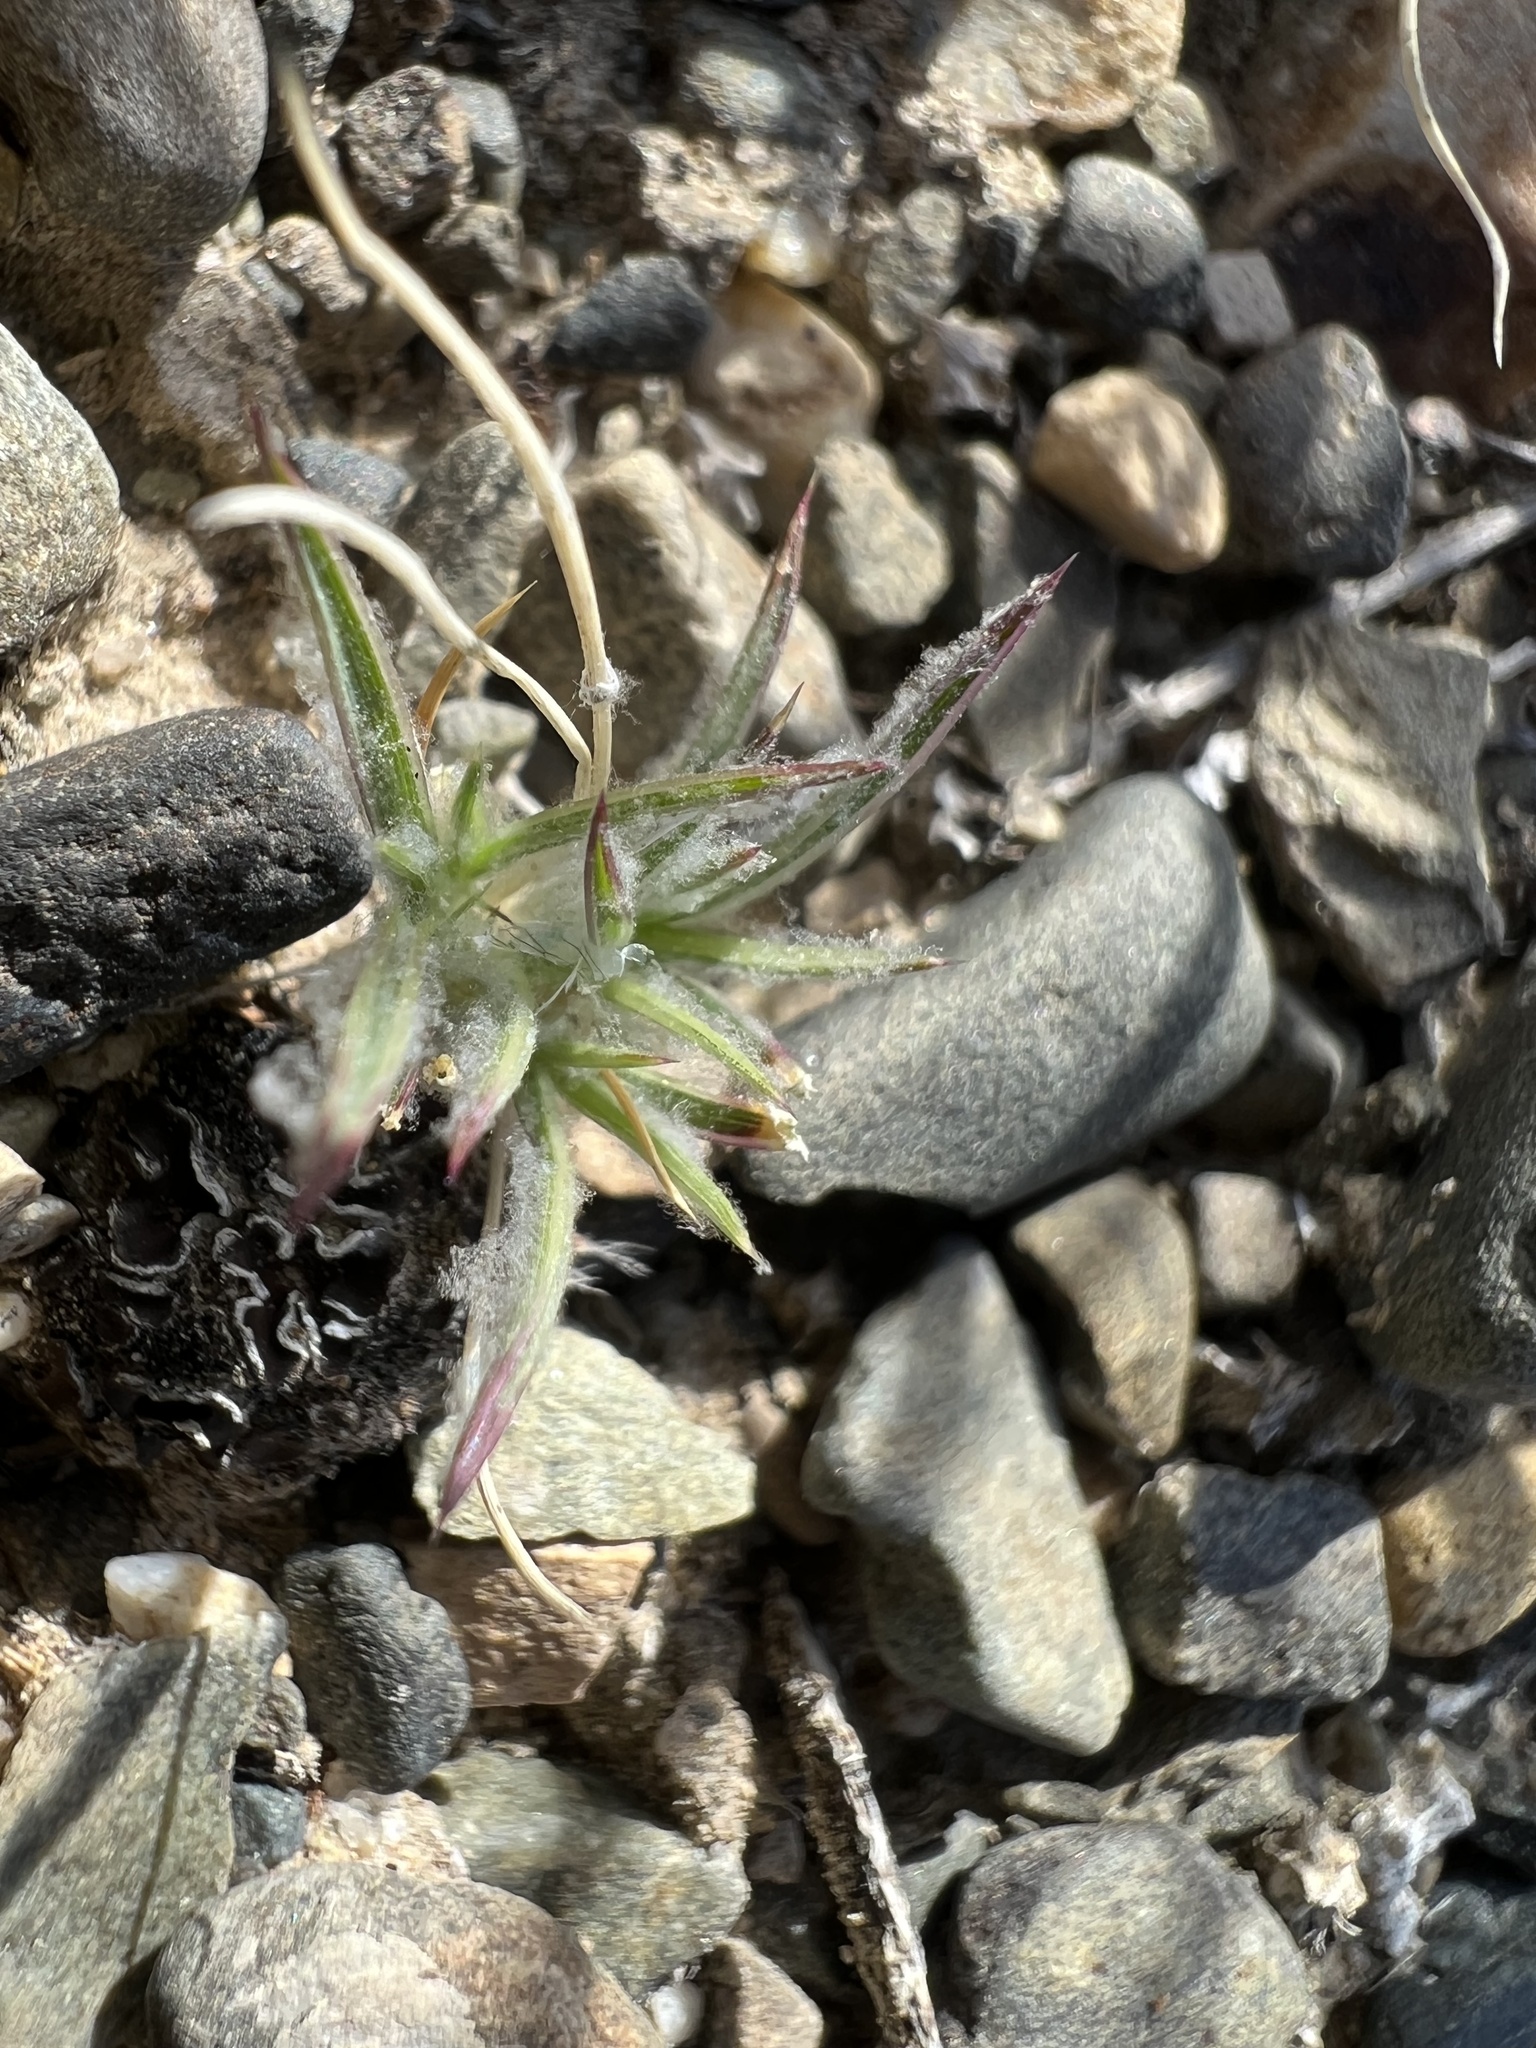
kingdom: Plantae
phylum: Tracheophyta
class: Liliopsida
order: Poales
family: Poaceae
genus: Dasyochloa
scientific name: Dasyochloa pulchella
